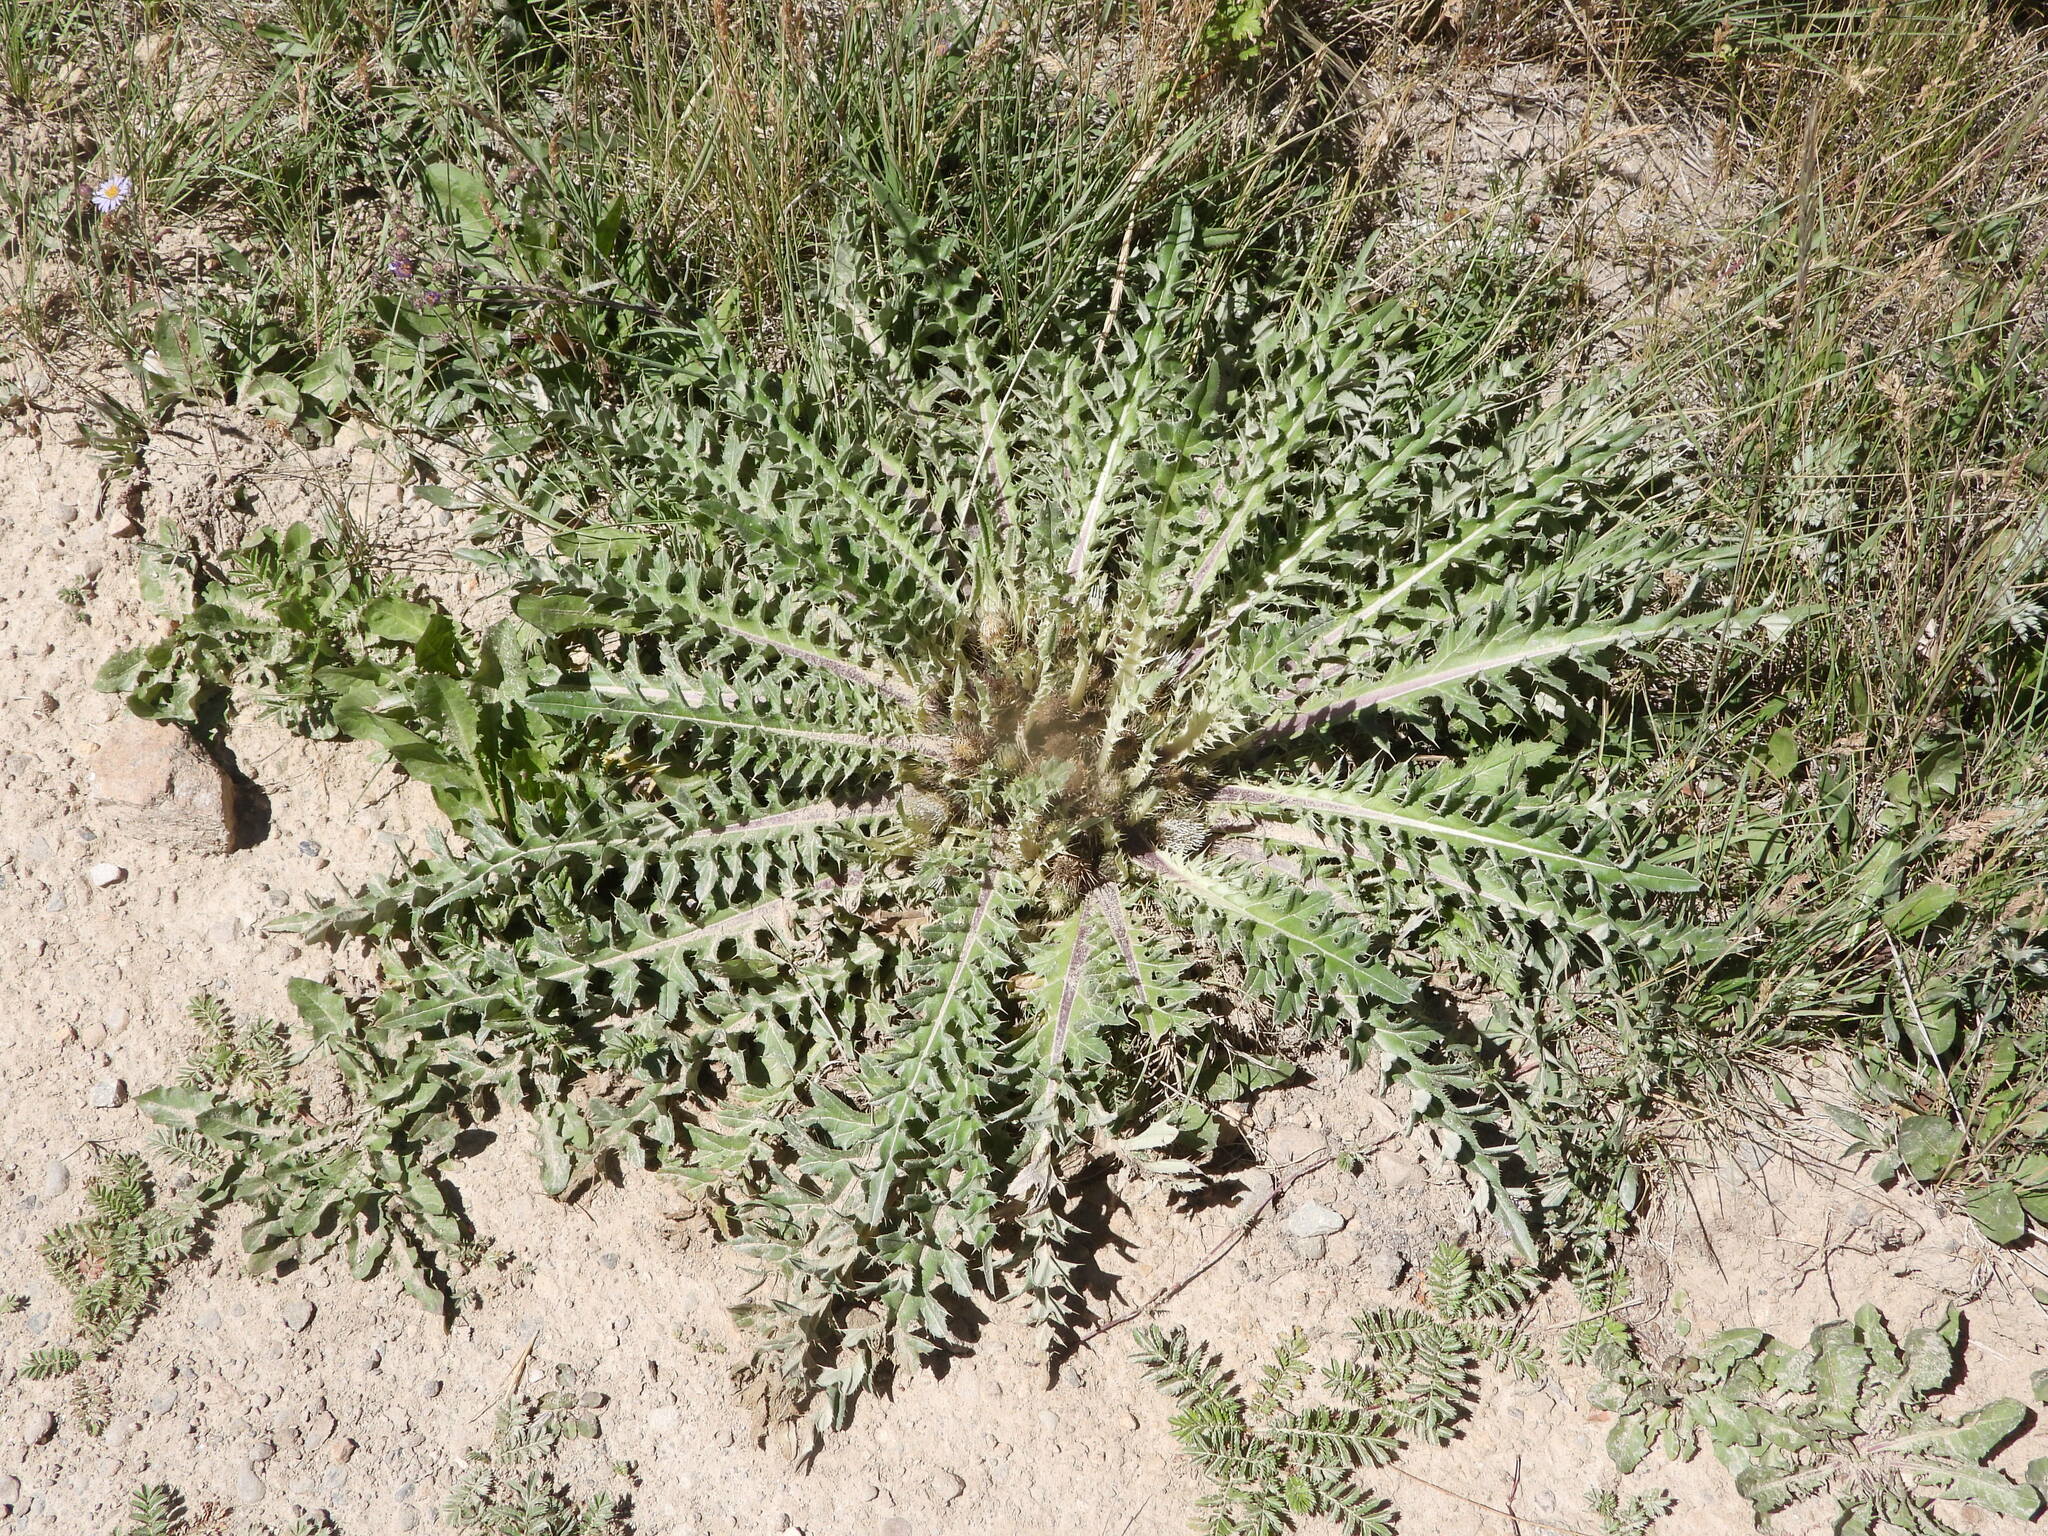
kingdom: Plantae
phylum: Tracheophyta
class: Magnoliopsida
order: Asterales
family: Asteraceae
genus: Cirsium
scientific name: Cirsium tioganum
